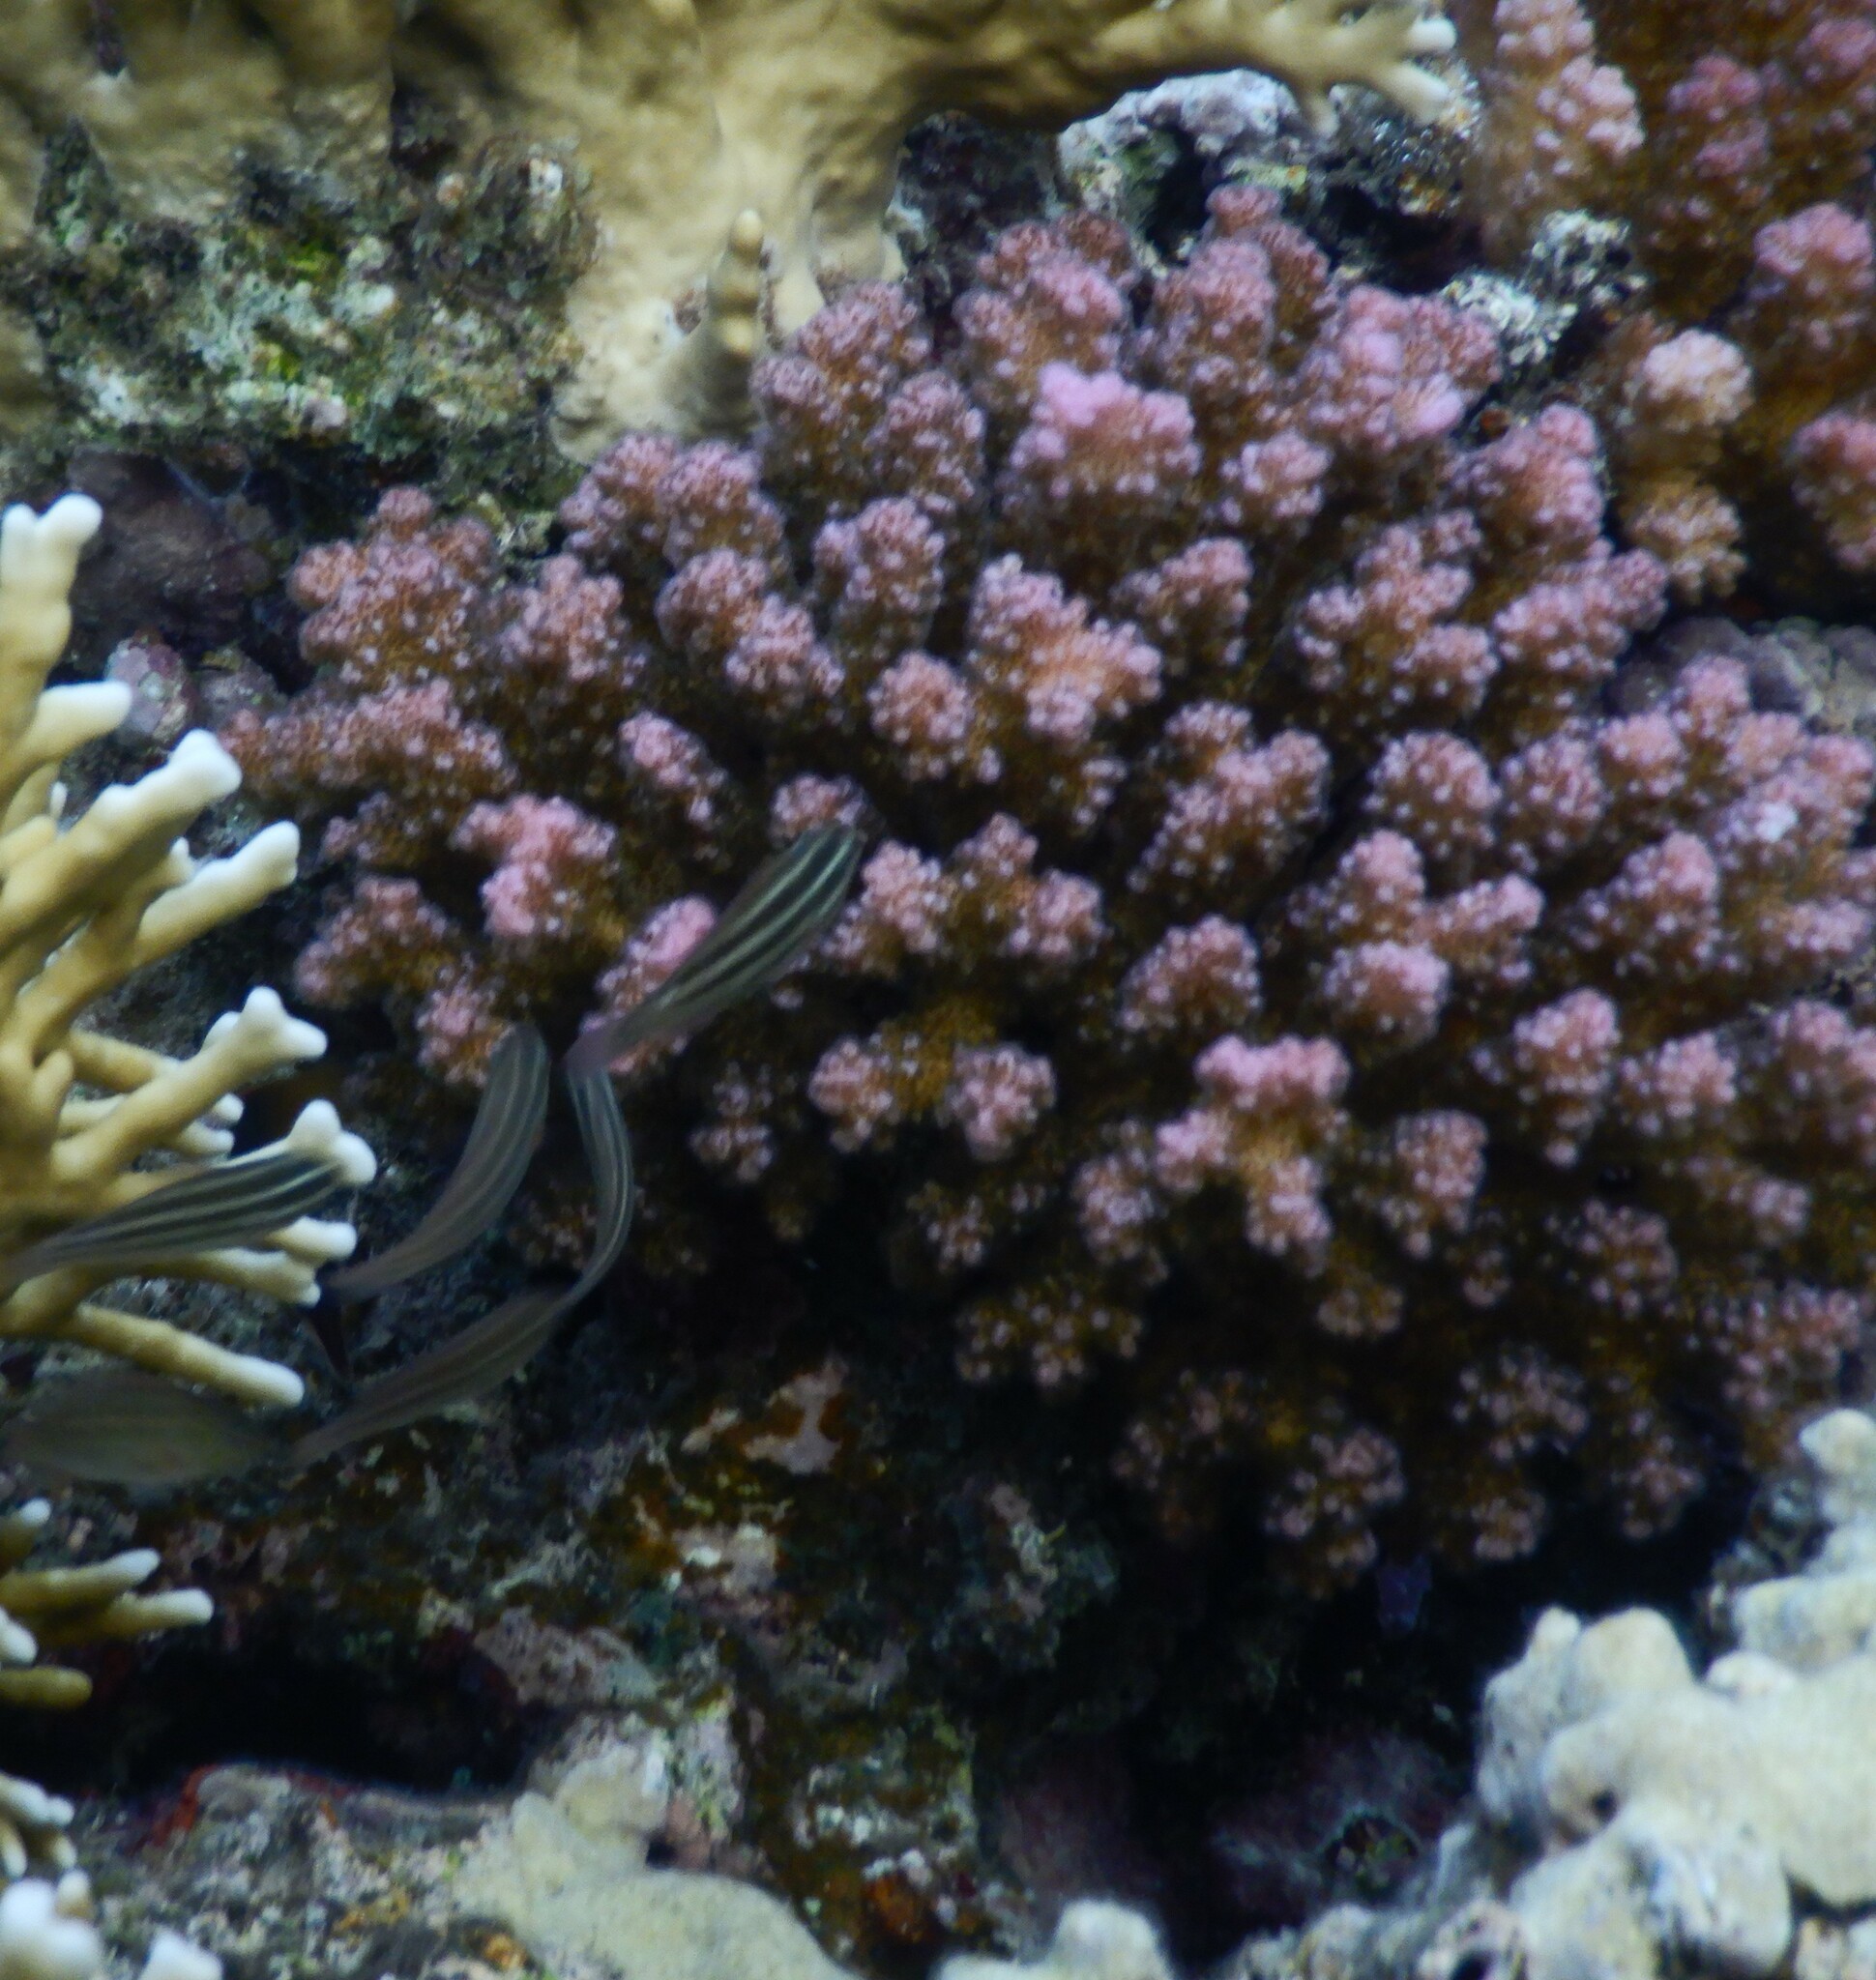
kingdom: Animalia
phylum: Cnidaria
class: Anthozoa
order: Scleractinia
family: Pocilloporidae
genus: Pocillopora
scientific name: Pocillopora verrucosa
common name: Cauliflower coral
